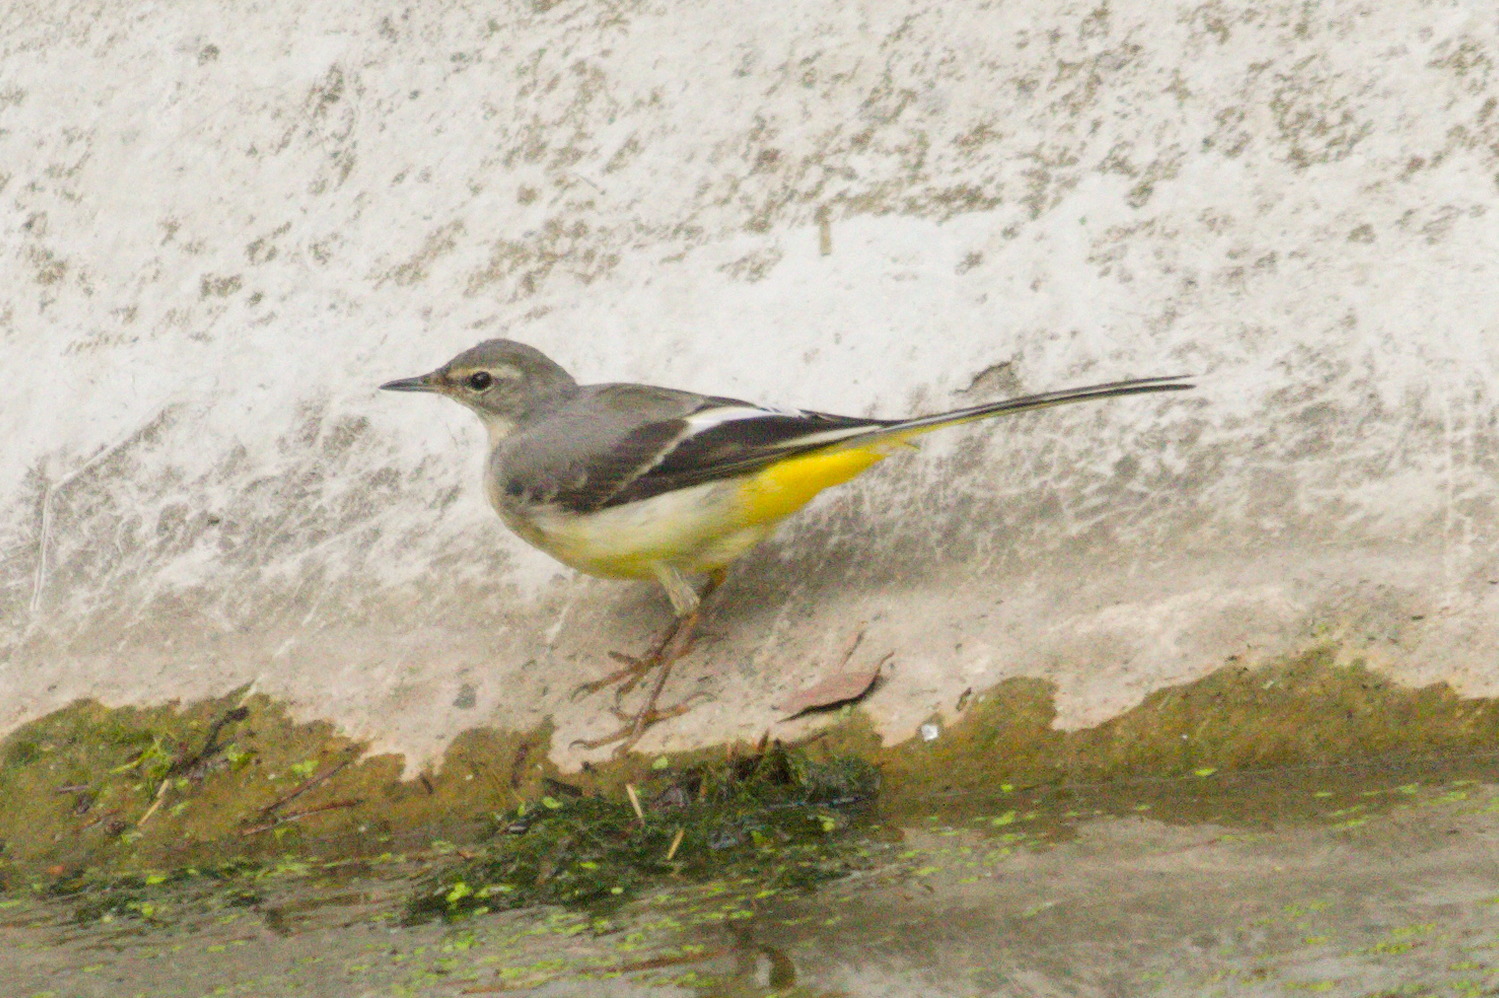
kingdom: Animalia
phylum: Chordata
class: Aves
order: Passeriformes
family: Motacillidae
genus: Motacilla
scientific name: Motacilla cinerea
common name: Grey wagtail
